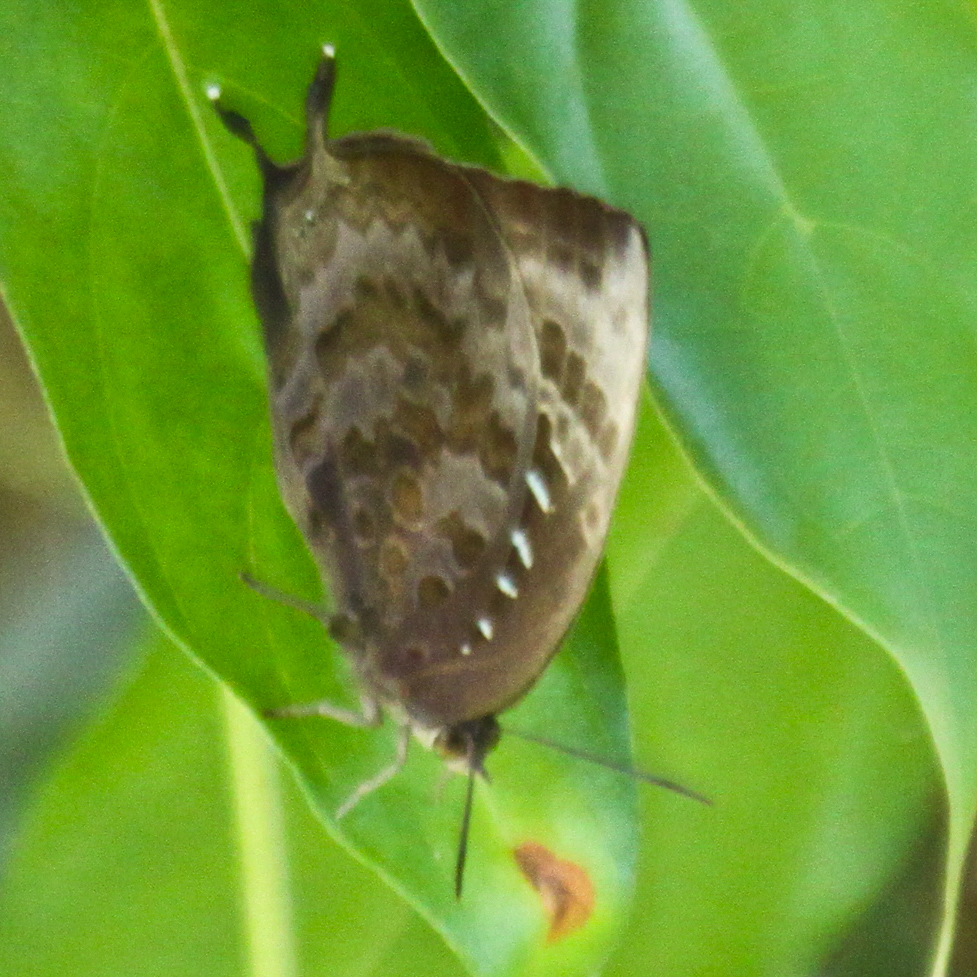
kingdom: Animalia
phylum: Arthropoda
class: Insecta
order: Lepidoptera
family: Lycaenidae
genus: Arhopala
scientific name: Arhopala centaurus
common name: Dull oak-blue
